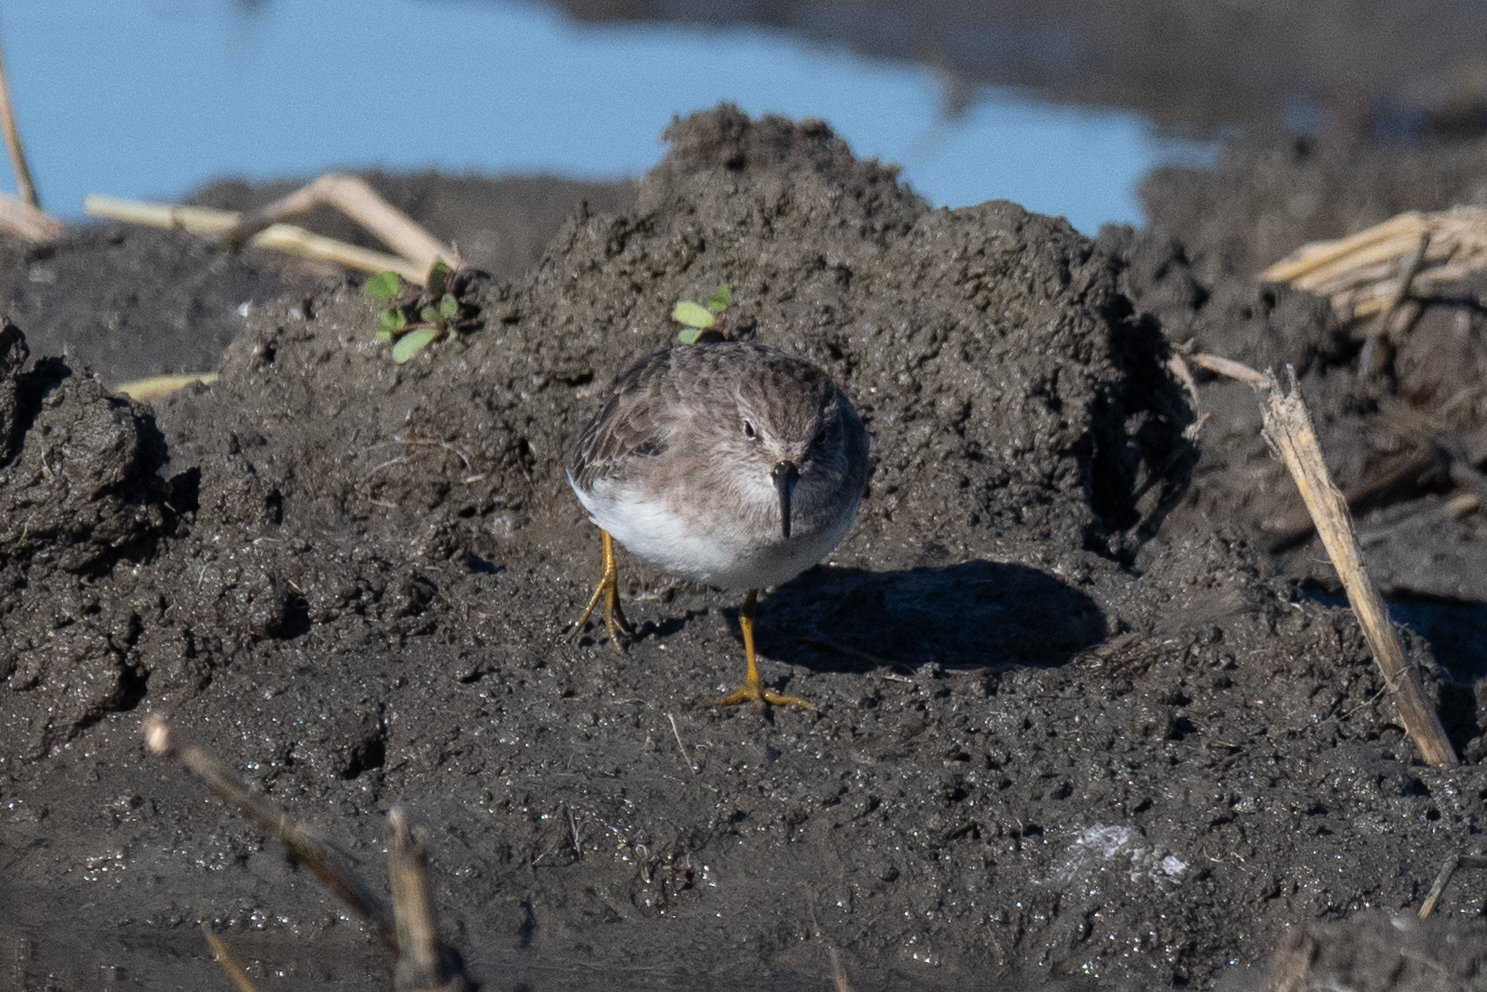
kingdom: Animalia
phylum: Chordata
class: Aves
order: Charadriiformes
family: Scolopacidae
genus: Calidris
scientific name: Calidris minutilla
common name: Least sandpiper
